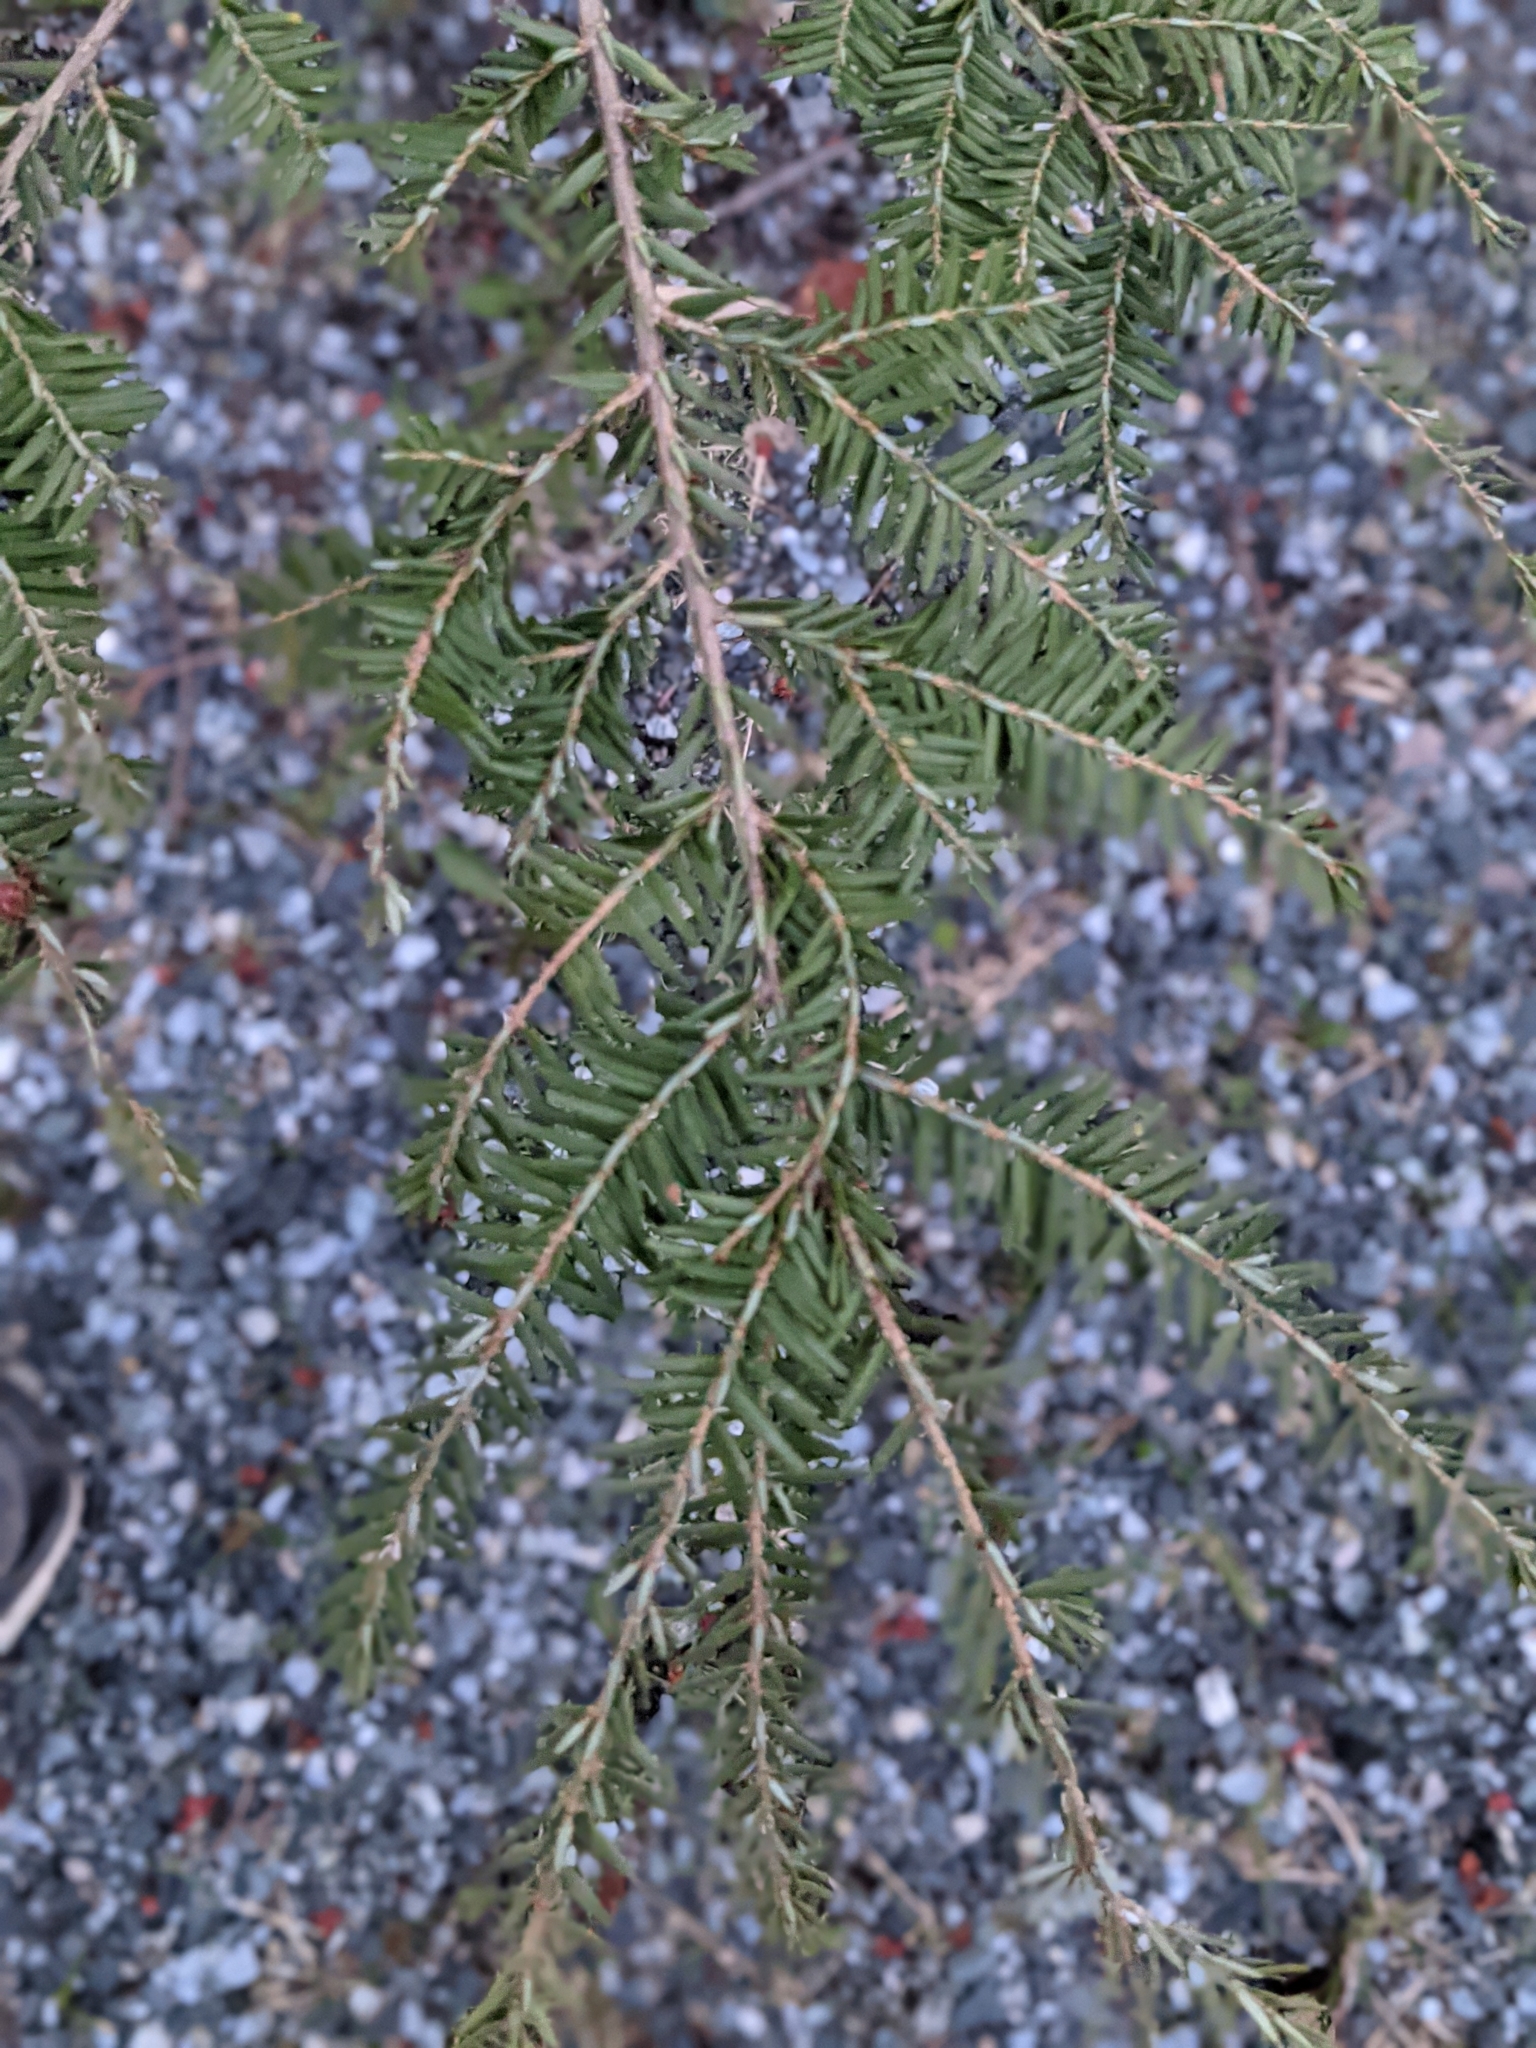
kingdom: Plantae
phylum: Tracheophyta
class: Pinopsida
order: Pinales
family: Pinaceae
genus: Tsuga
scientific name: Tsuga canadensis
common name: Eastern hemlock
